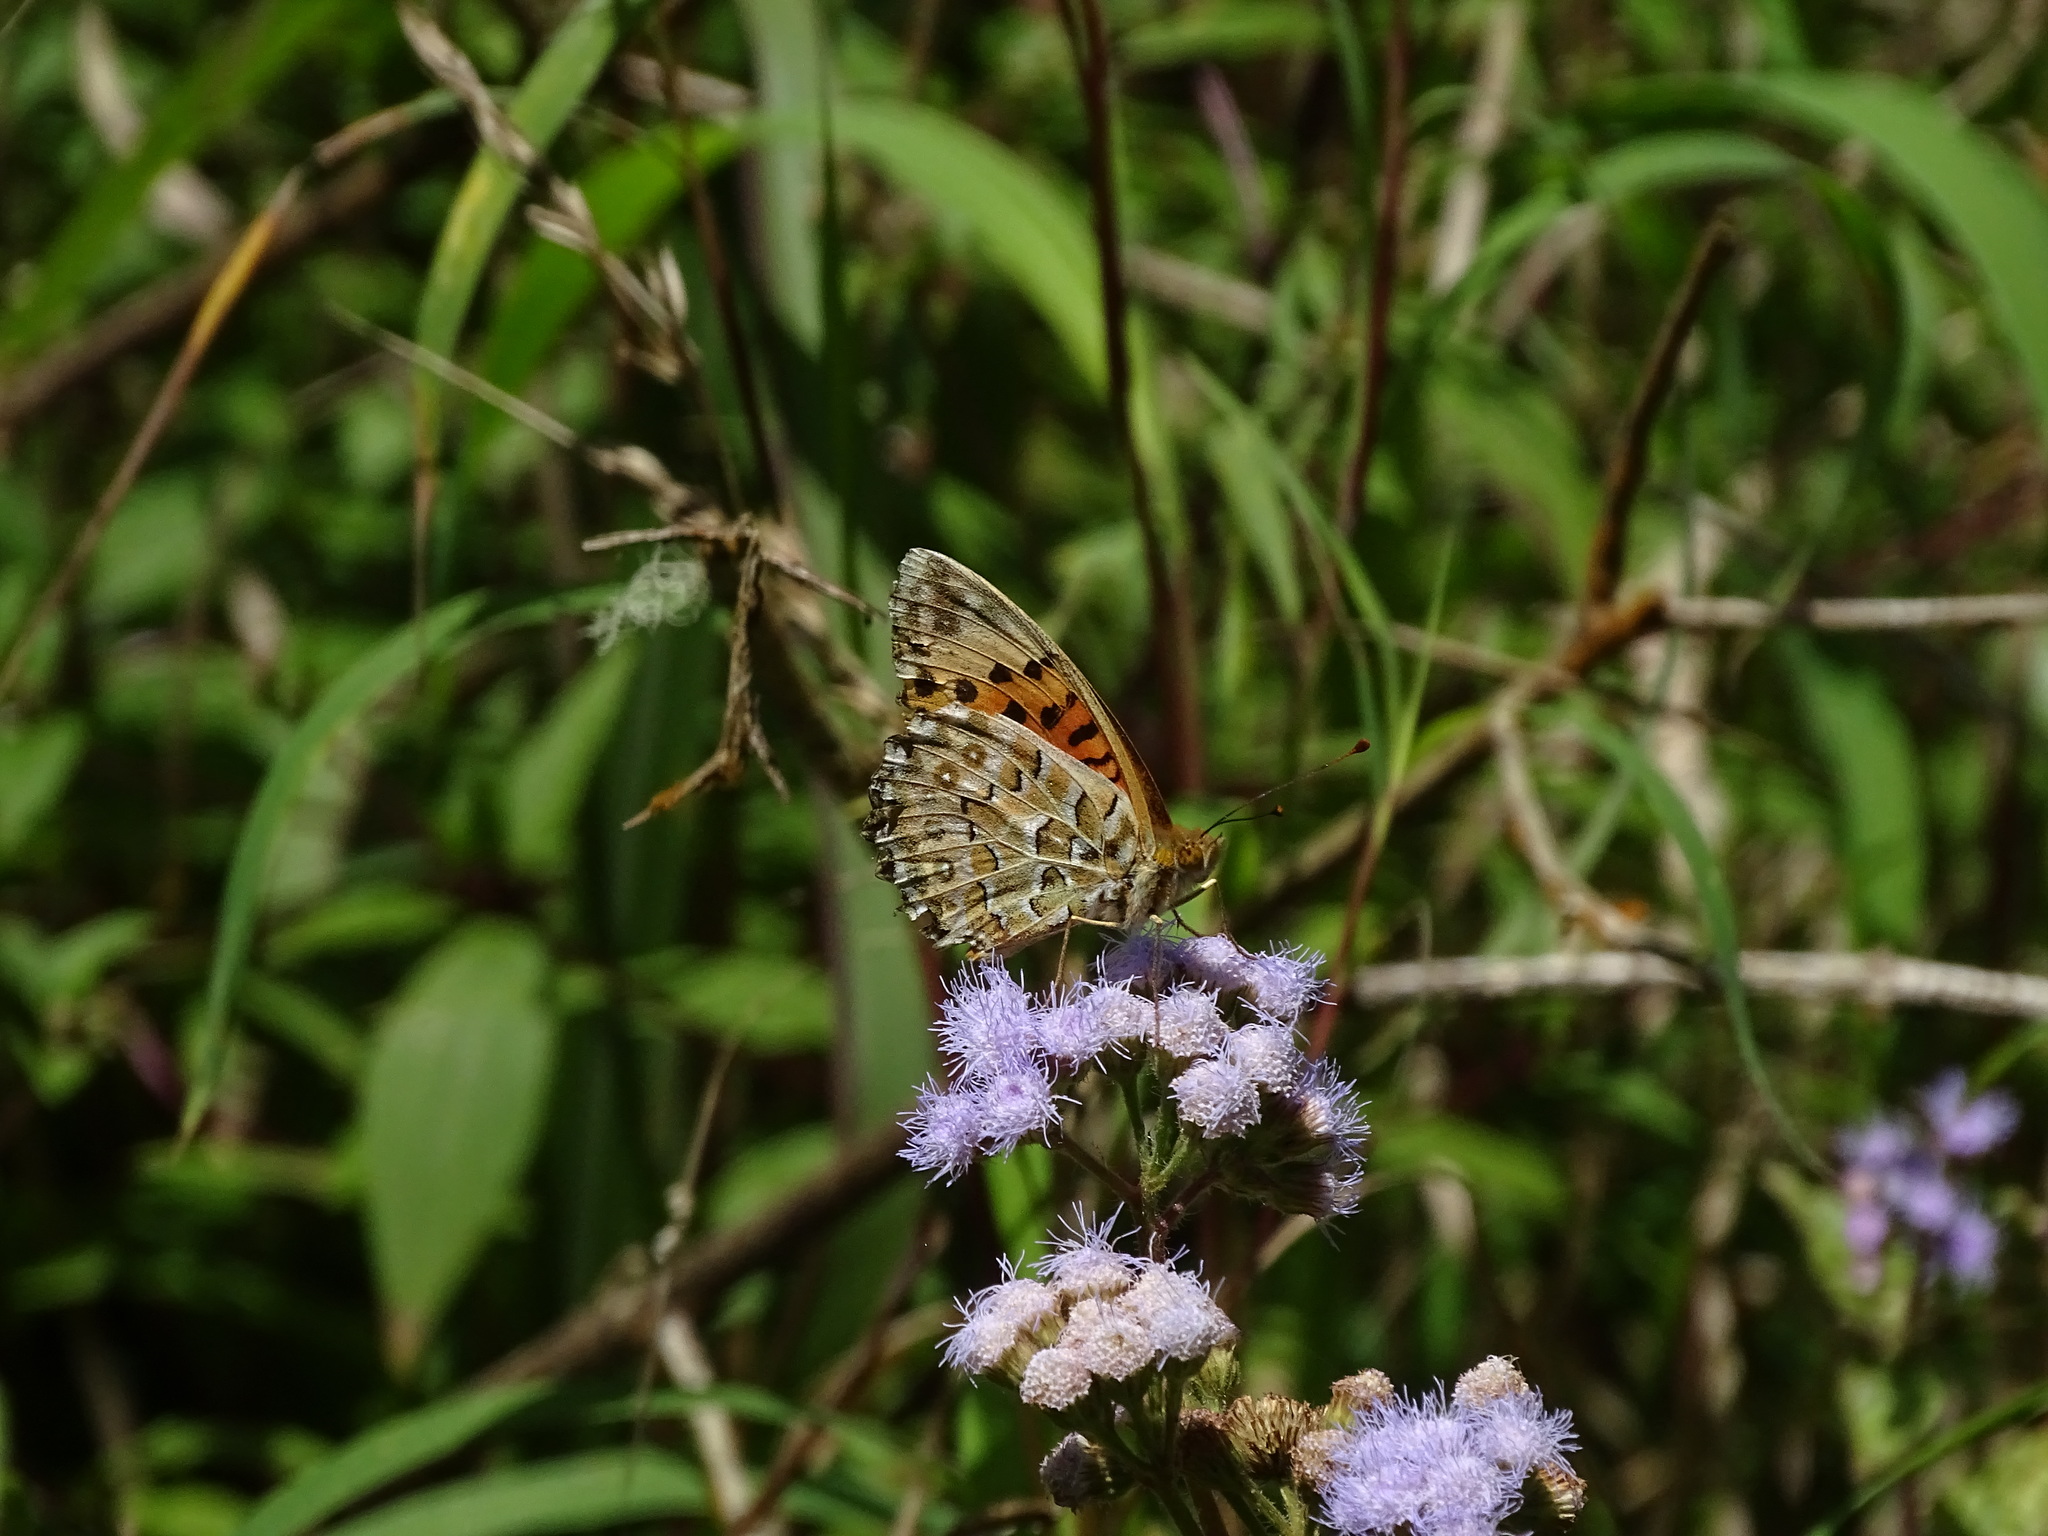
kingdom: Animalia
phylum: Arthropoda
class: Insecta
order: Lepidoptera
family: Nymphalidae
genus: Argynnis
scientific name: Argynnis hyperbius
